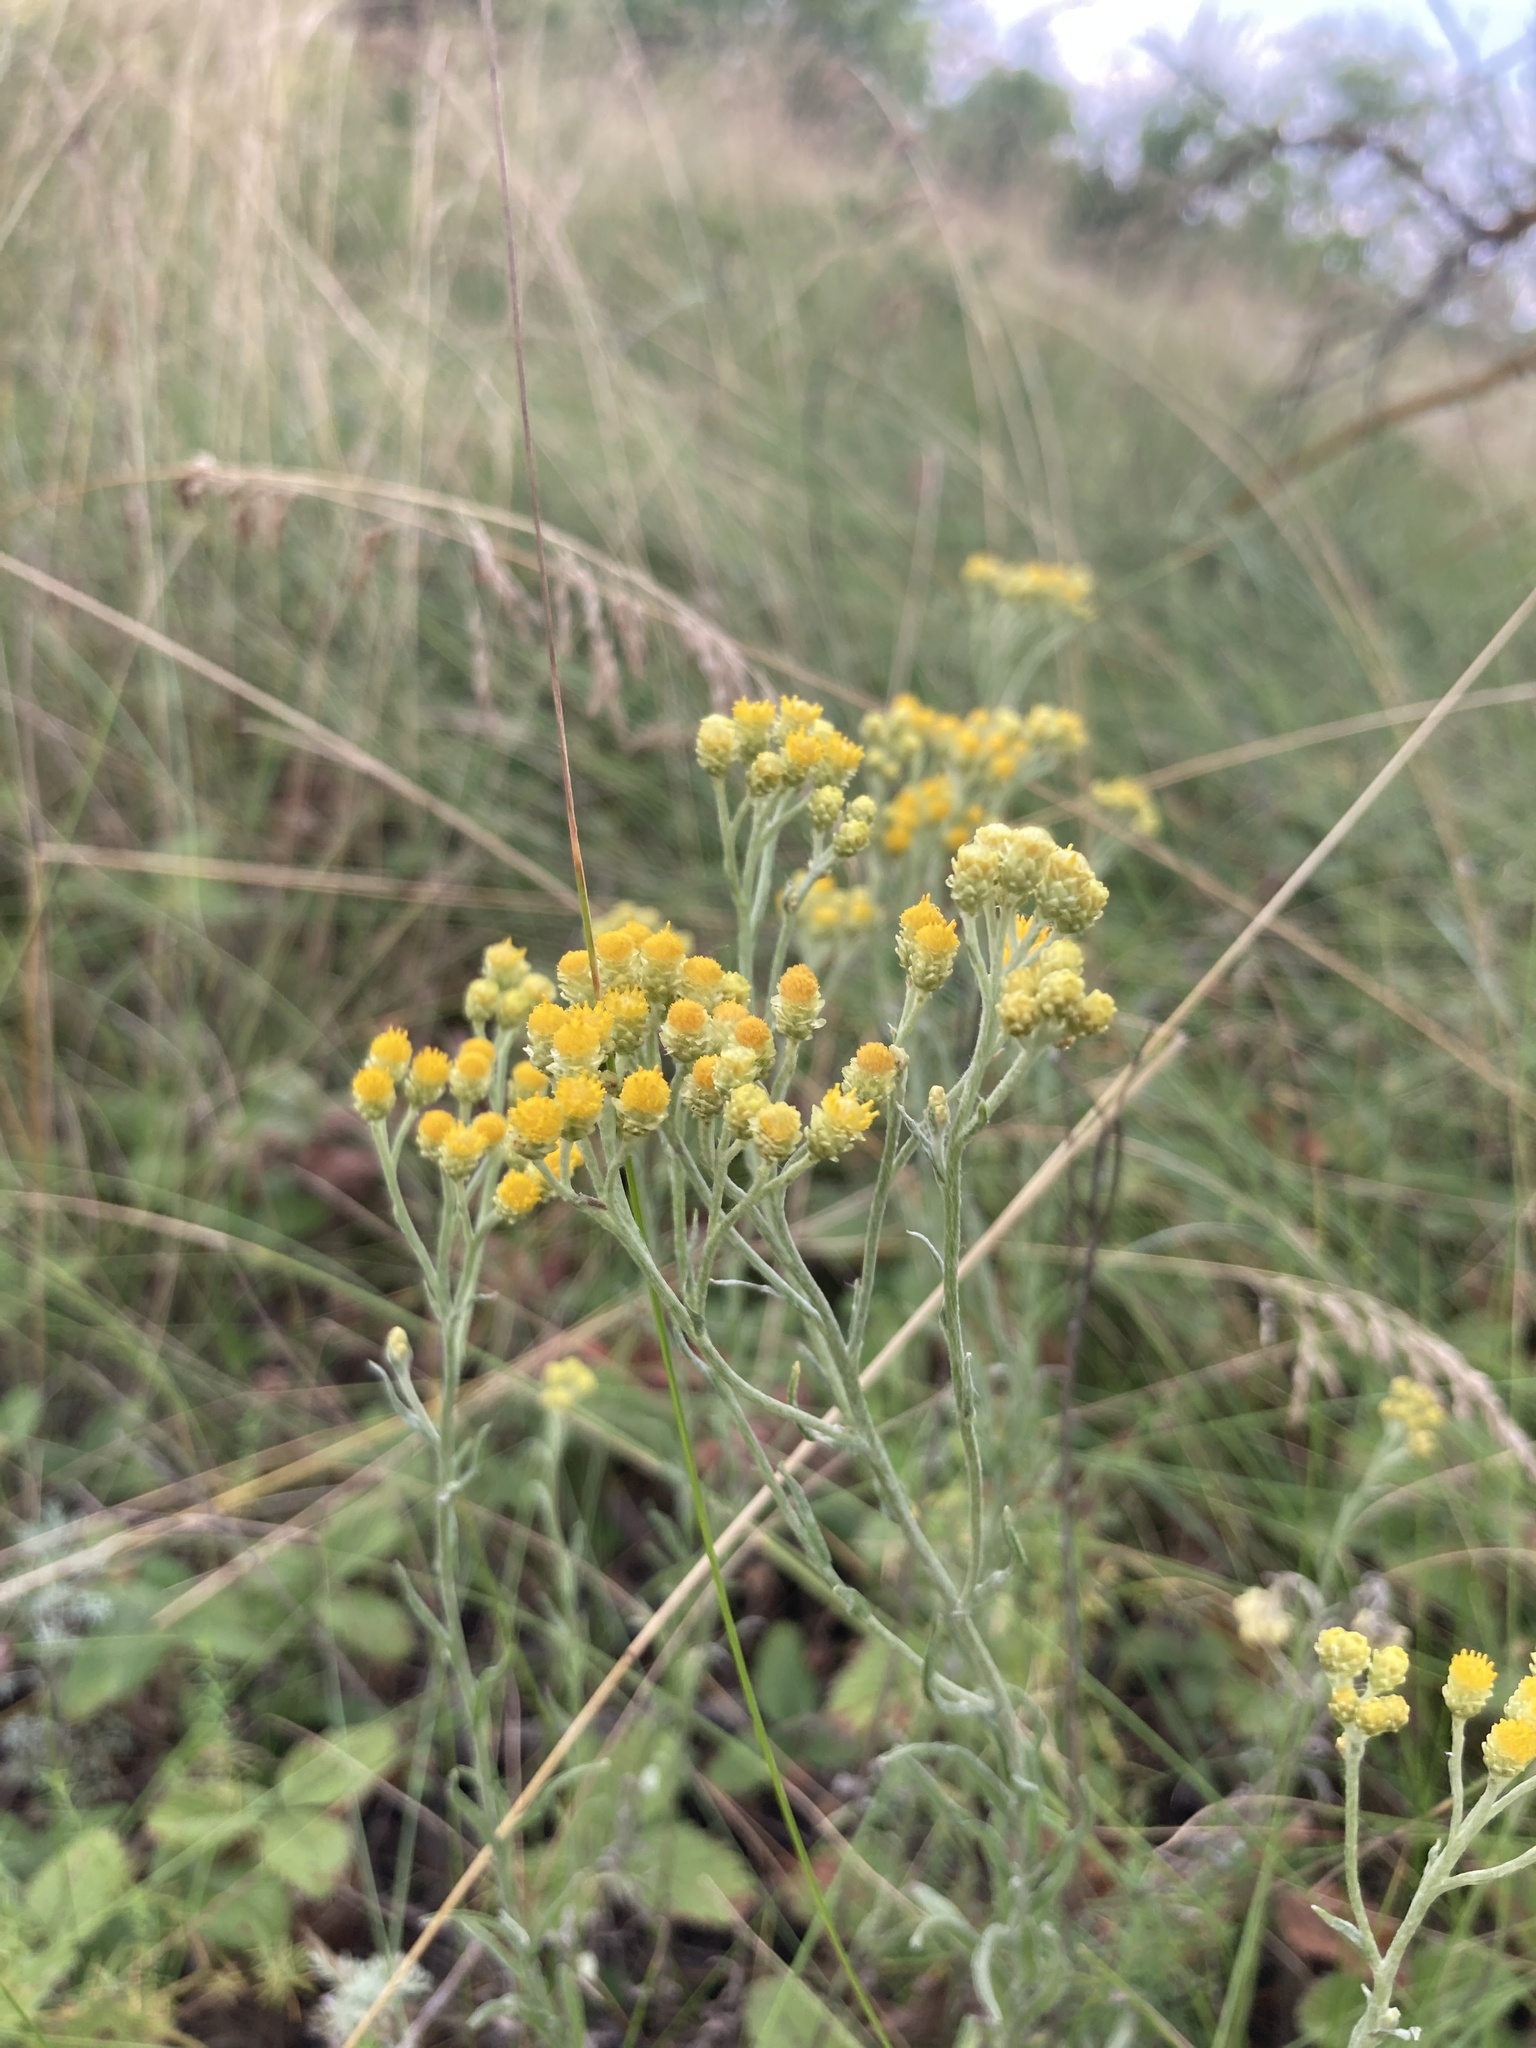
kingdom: Plantae
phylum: Tracheophyta
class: Magnoliopsida
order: Asterales
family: Asteraceae
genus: Helichrysum
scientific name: Helichrysum arenarium
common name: Strawflower
